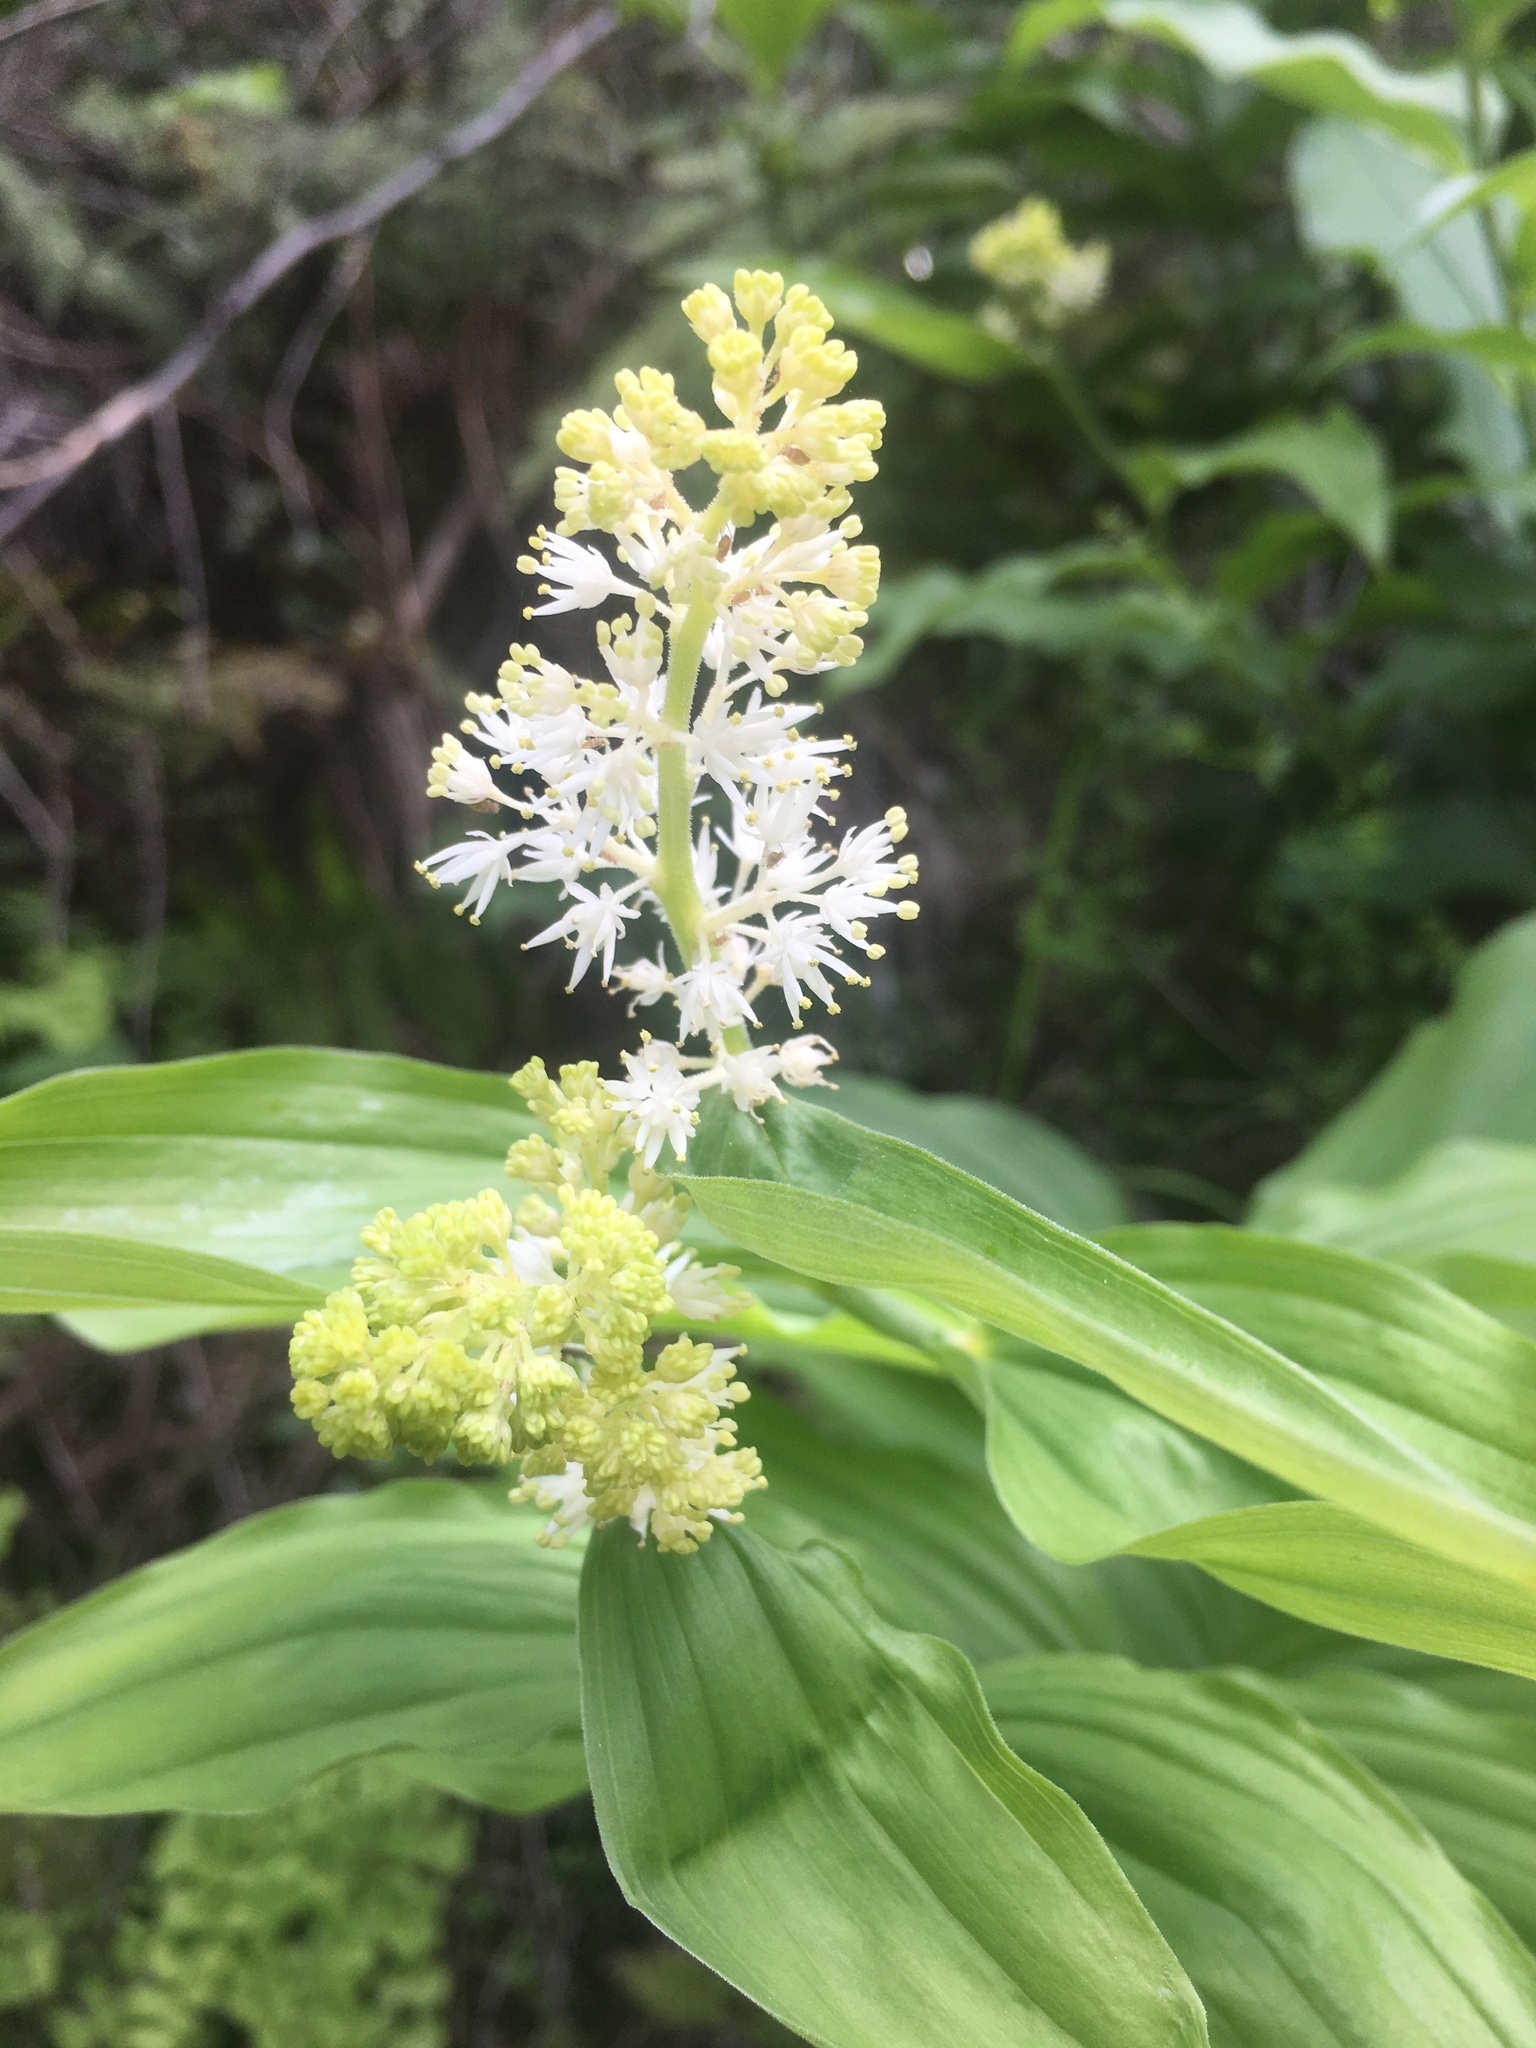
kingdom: Plantae
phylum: Tracheophyta
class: Liliopsida
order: Asparagales
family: Asparagaceae
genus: Maianthemum
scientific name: Maianthemum racemosum
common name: False spikenard
